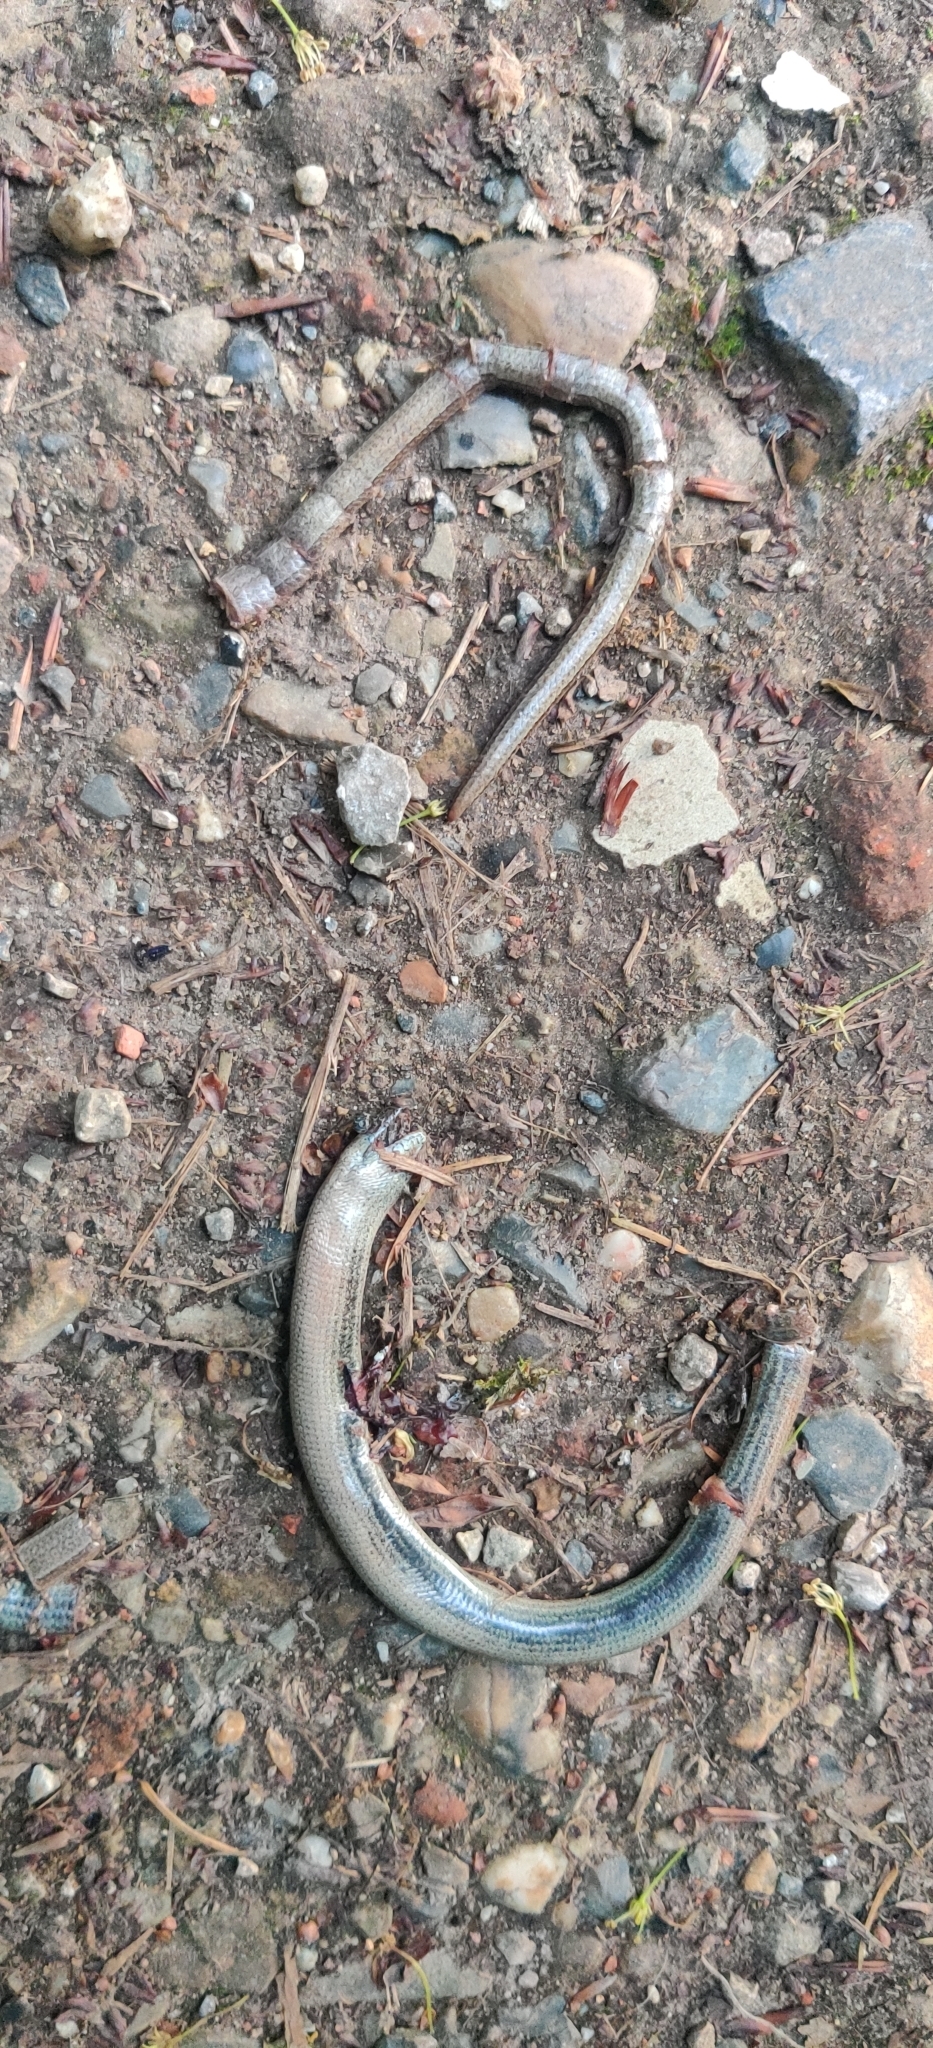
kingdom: Animalia
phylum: Chordata
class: Squamata
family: Anguidae
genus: Anguis
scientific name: Anguis fragilis
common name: Slow worm
